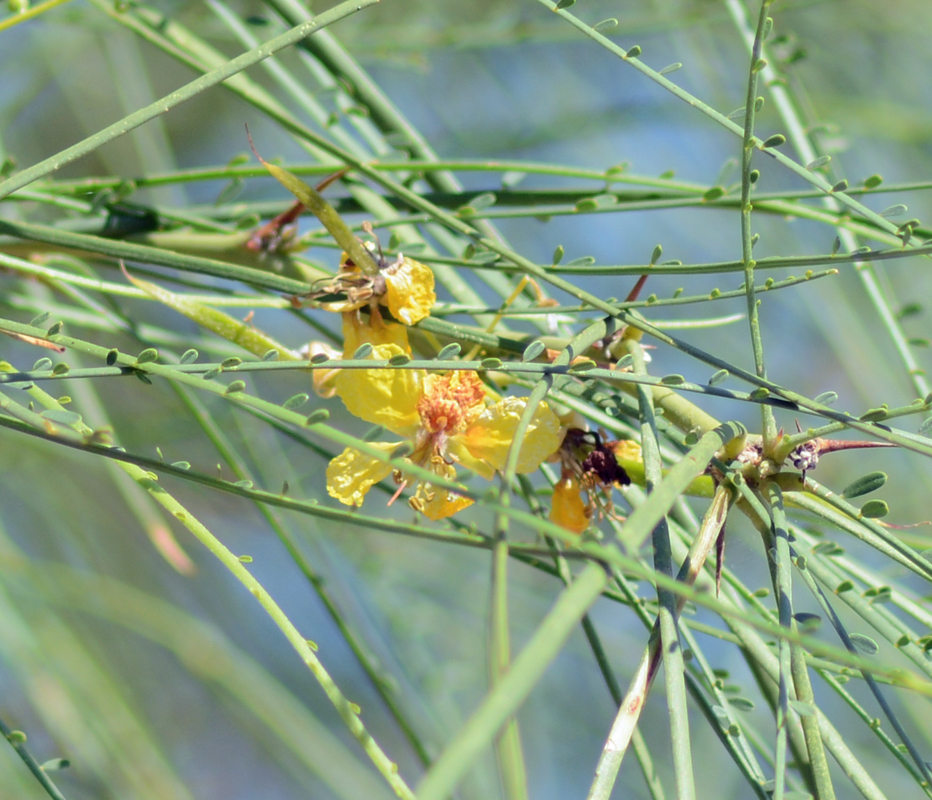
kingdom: Plantae
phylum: Tracheophyta
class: Magnoliopsida
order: Fabales
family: Fabaceae
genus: Parkinsonia
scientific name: Parkinsonia aculeata
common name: Jerusalem thorn
